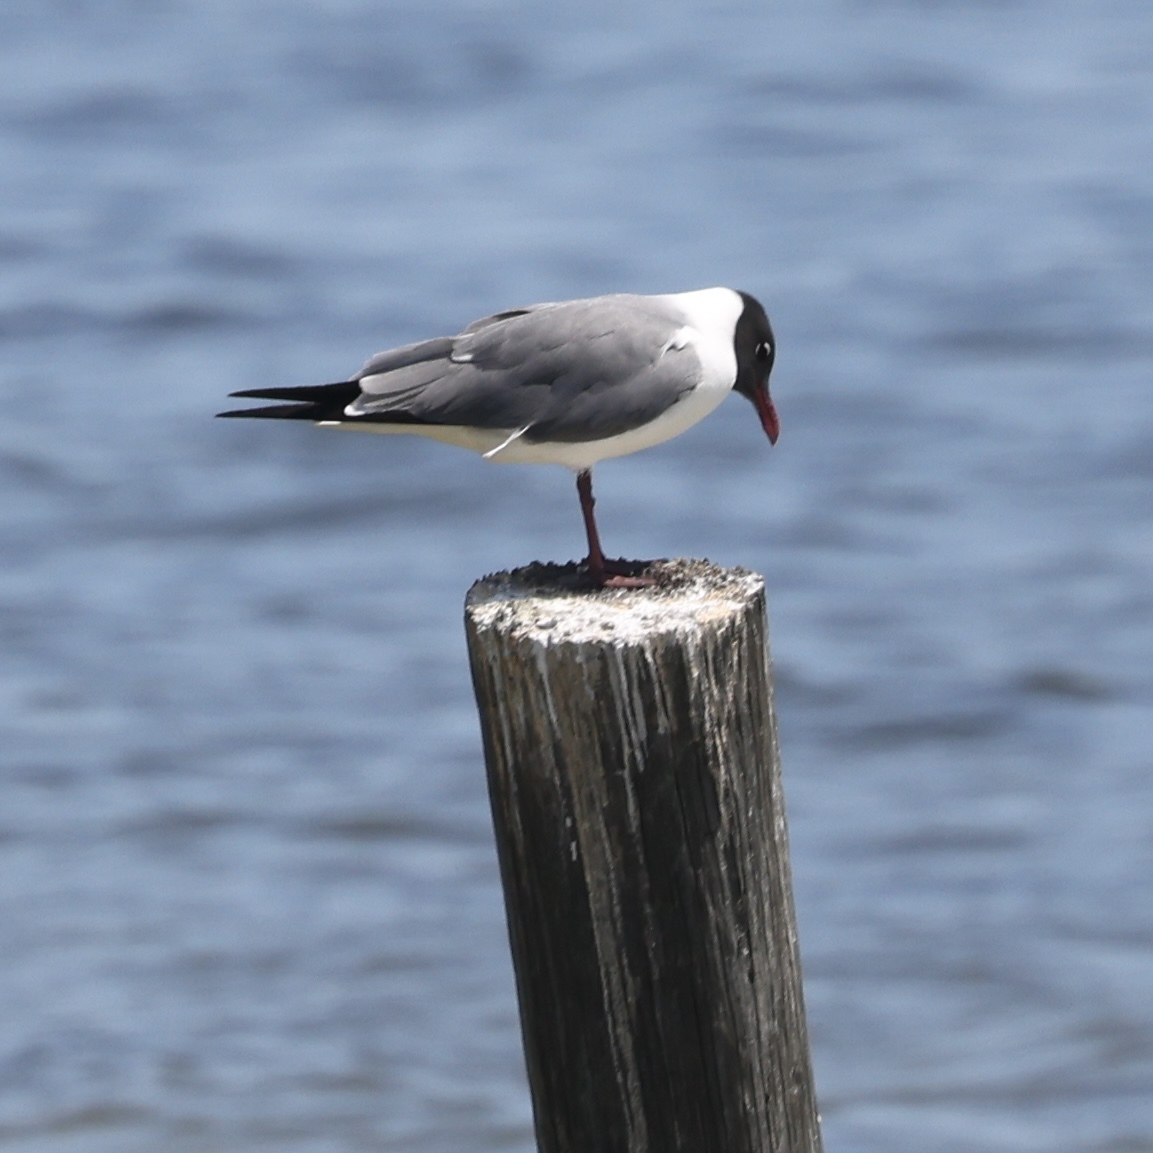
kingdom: Animalia
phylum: Chordata
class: Aves
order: Charadriiformes
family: Laridae
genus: Leucophaeus
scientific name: Leucophaeus atricilla
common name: Laughing gull
